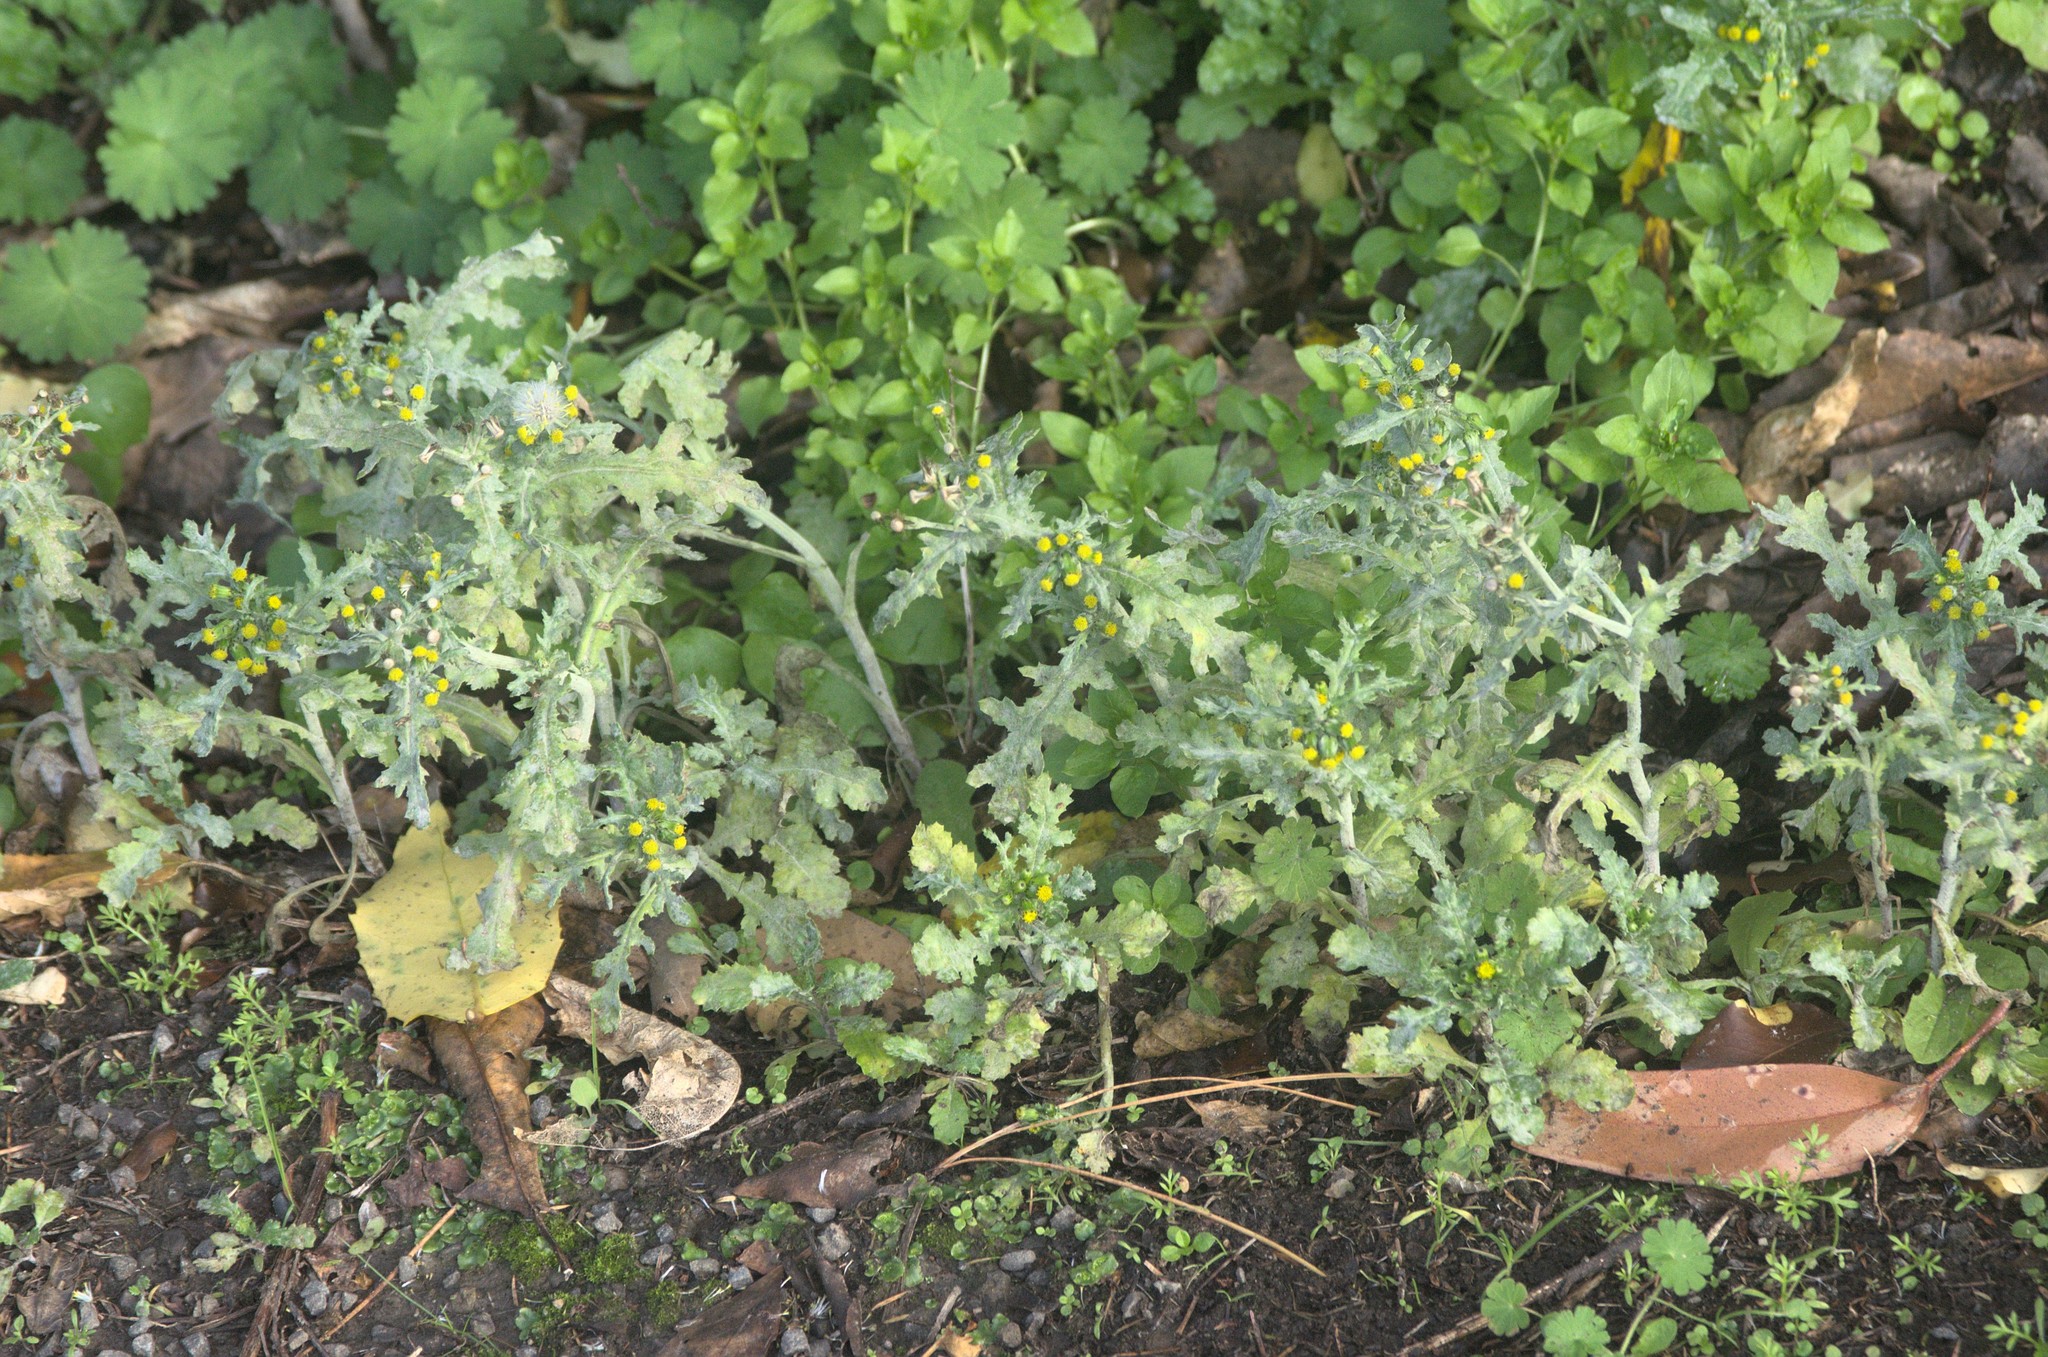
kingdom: Plantae
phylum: Tracheophyta
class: Magnoliopsida
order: Asterales
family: Asteraceae
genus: Senecio
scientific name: Senecio vulgaris
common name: Old-man-in-the-spring
